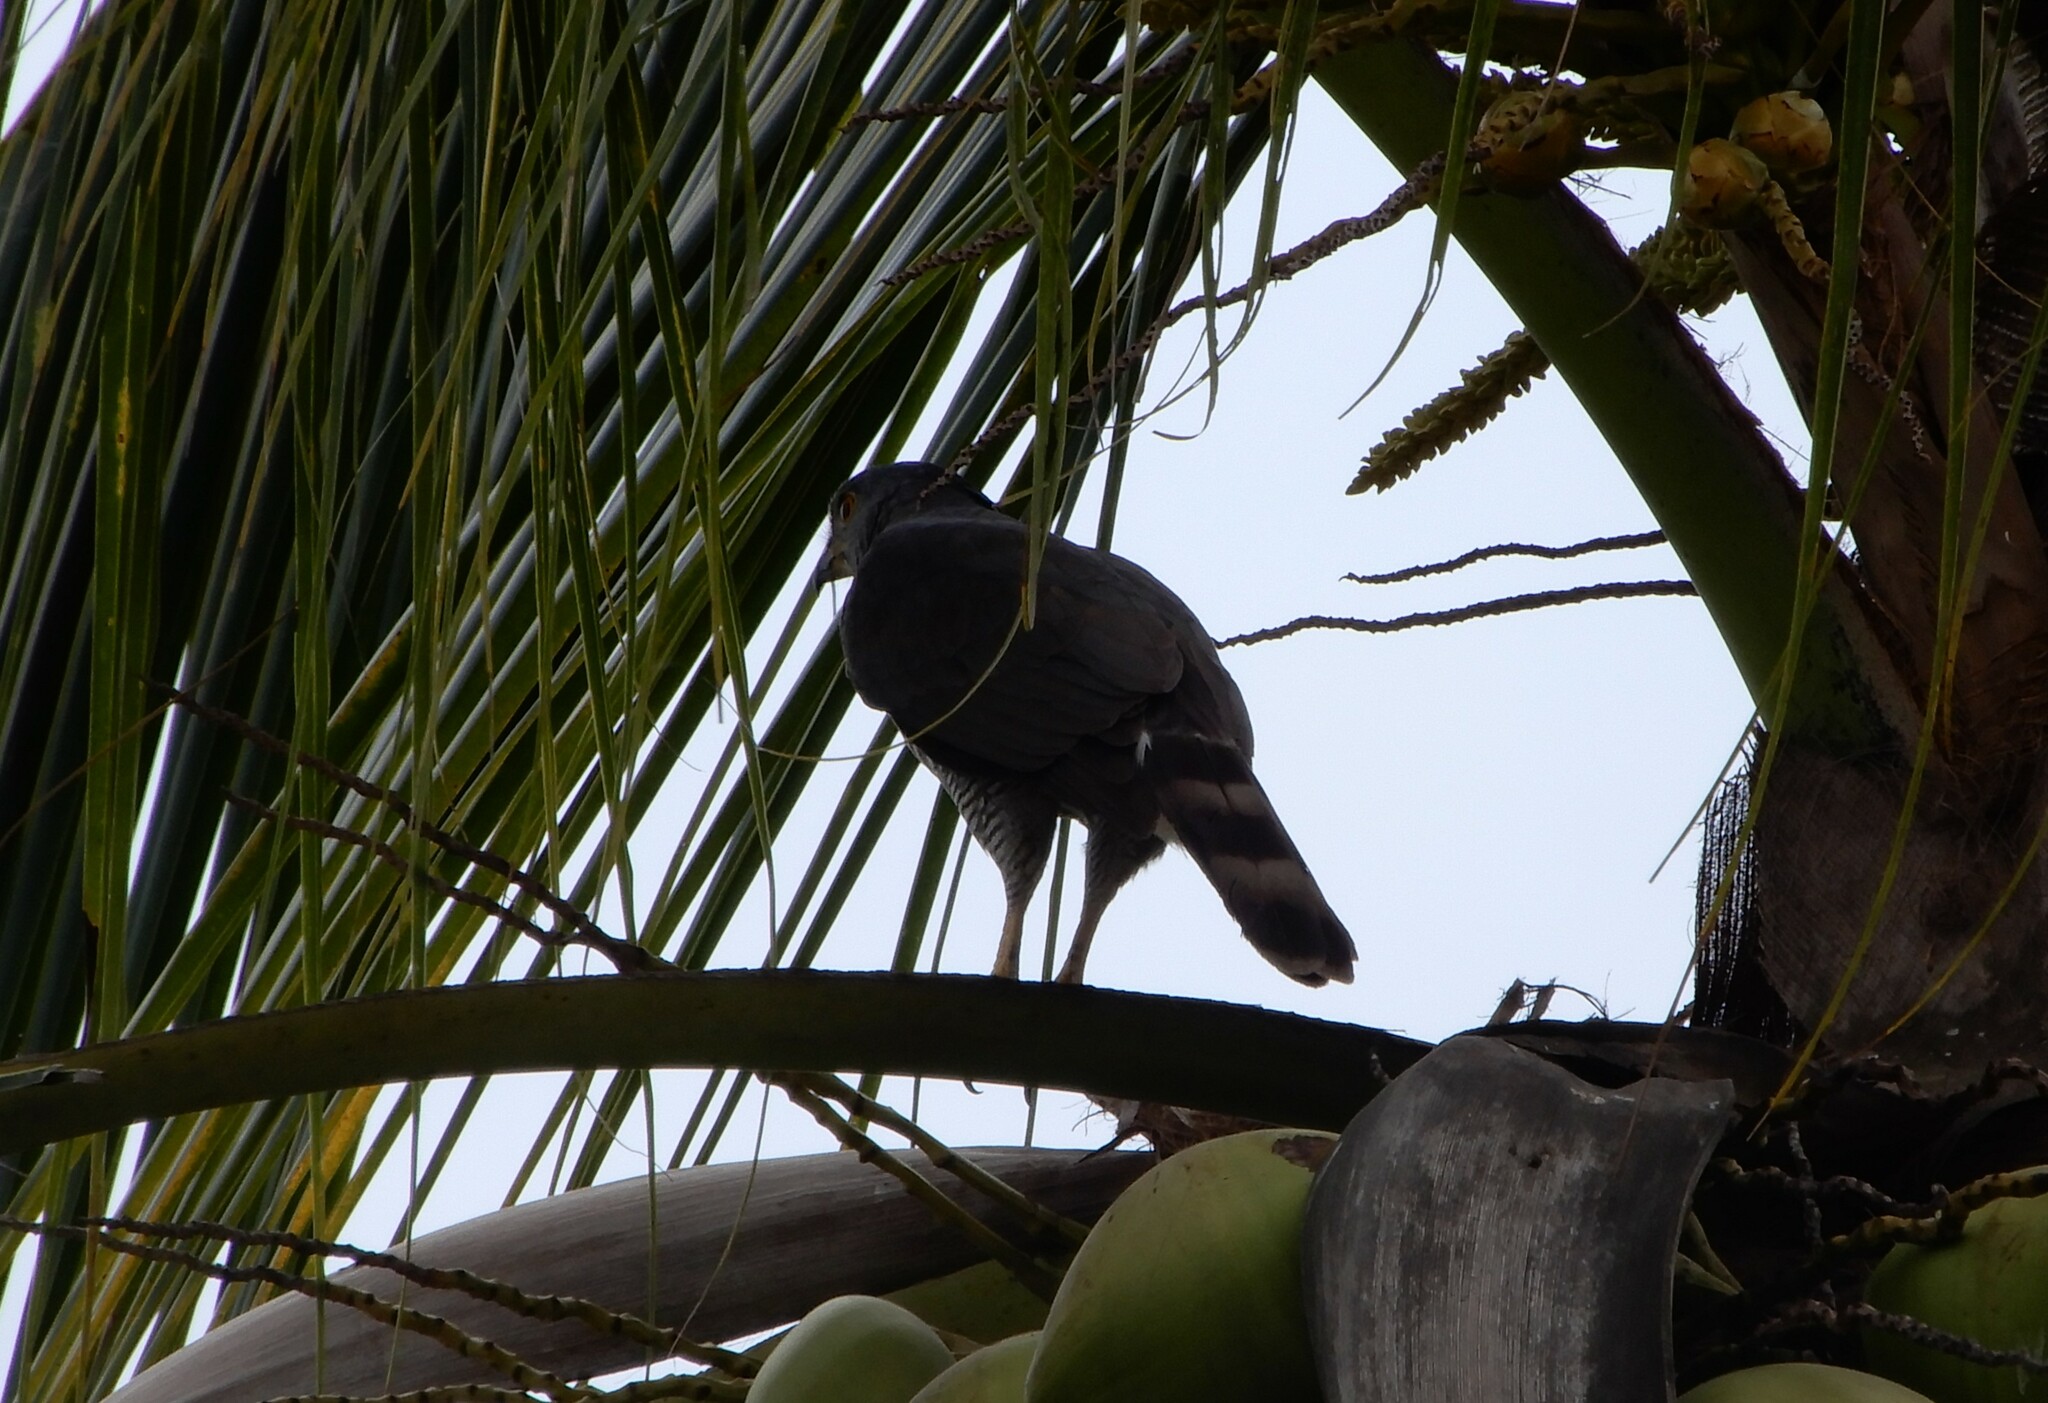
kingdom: Animalia
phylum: Chordata
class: Aves
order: Accipitriformes
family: Accipitridae
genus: Accipiter
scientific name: Accipiter trivirgatus
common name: Crested goshawk
